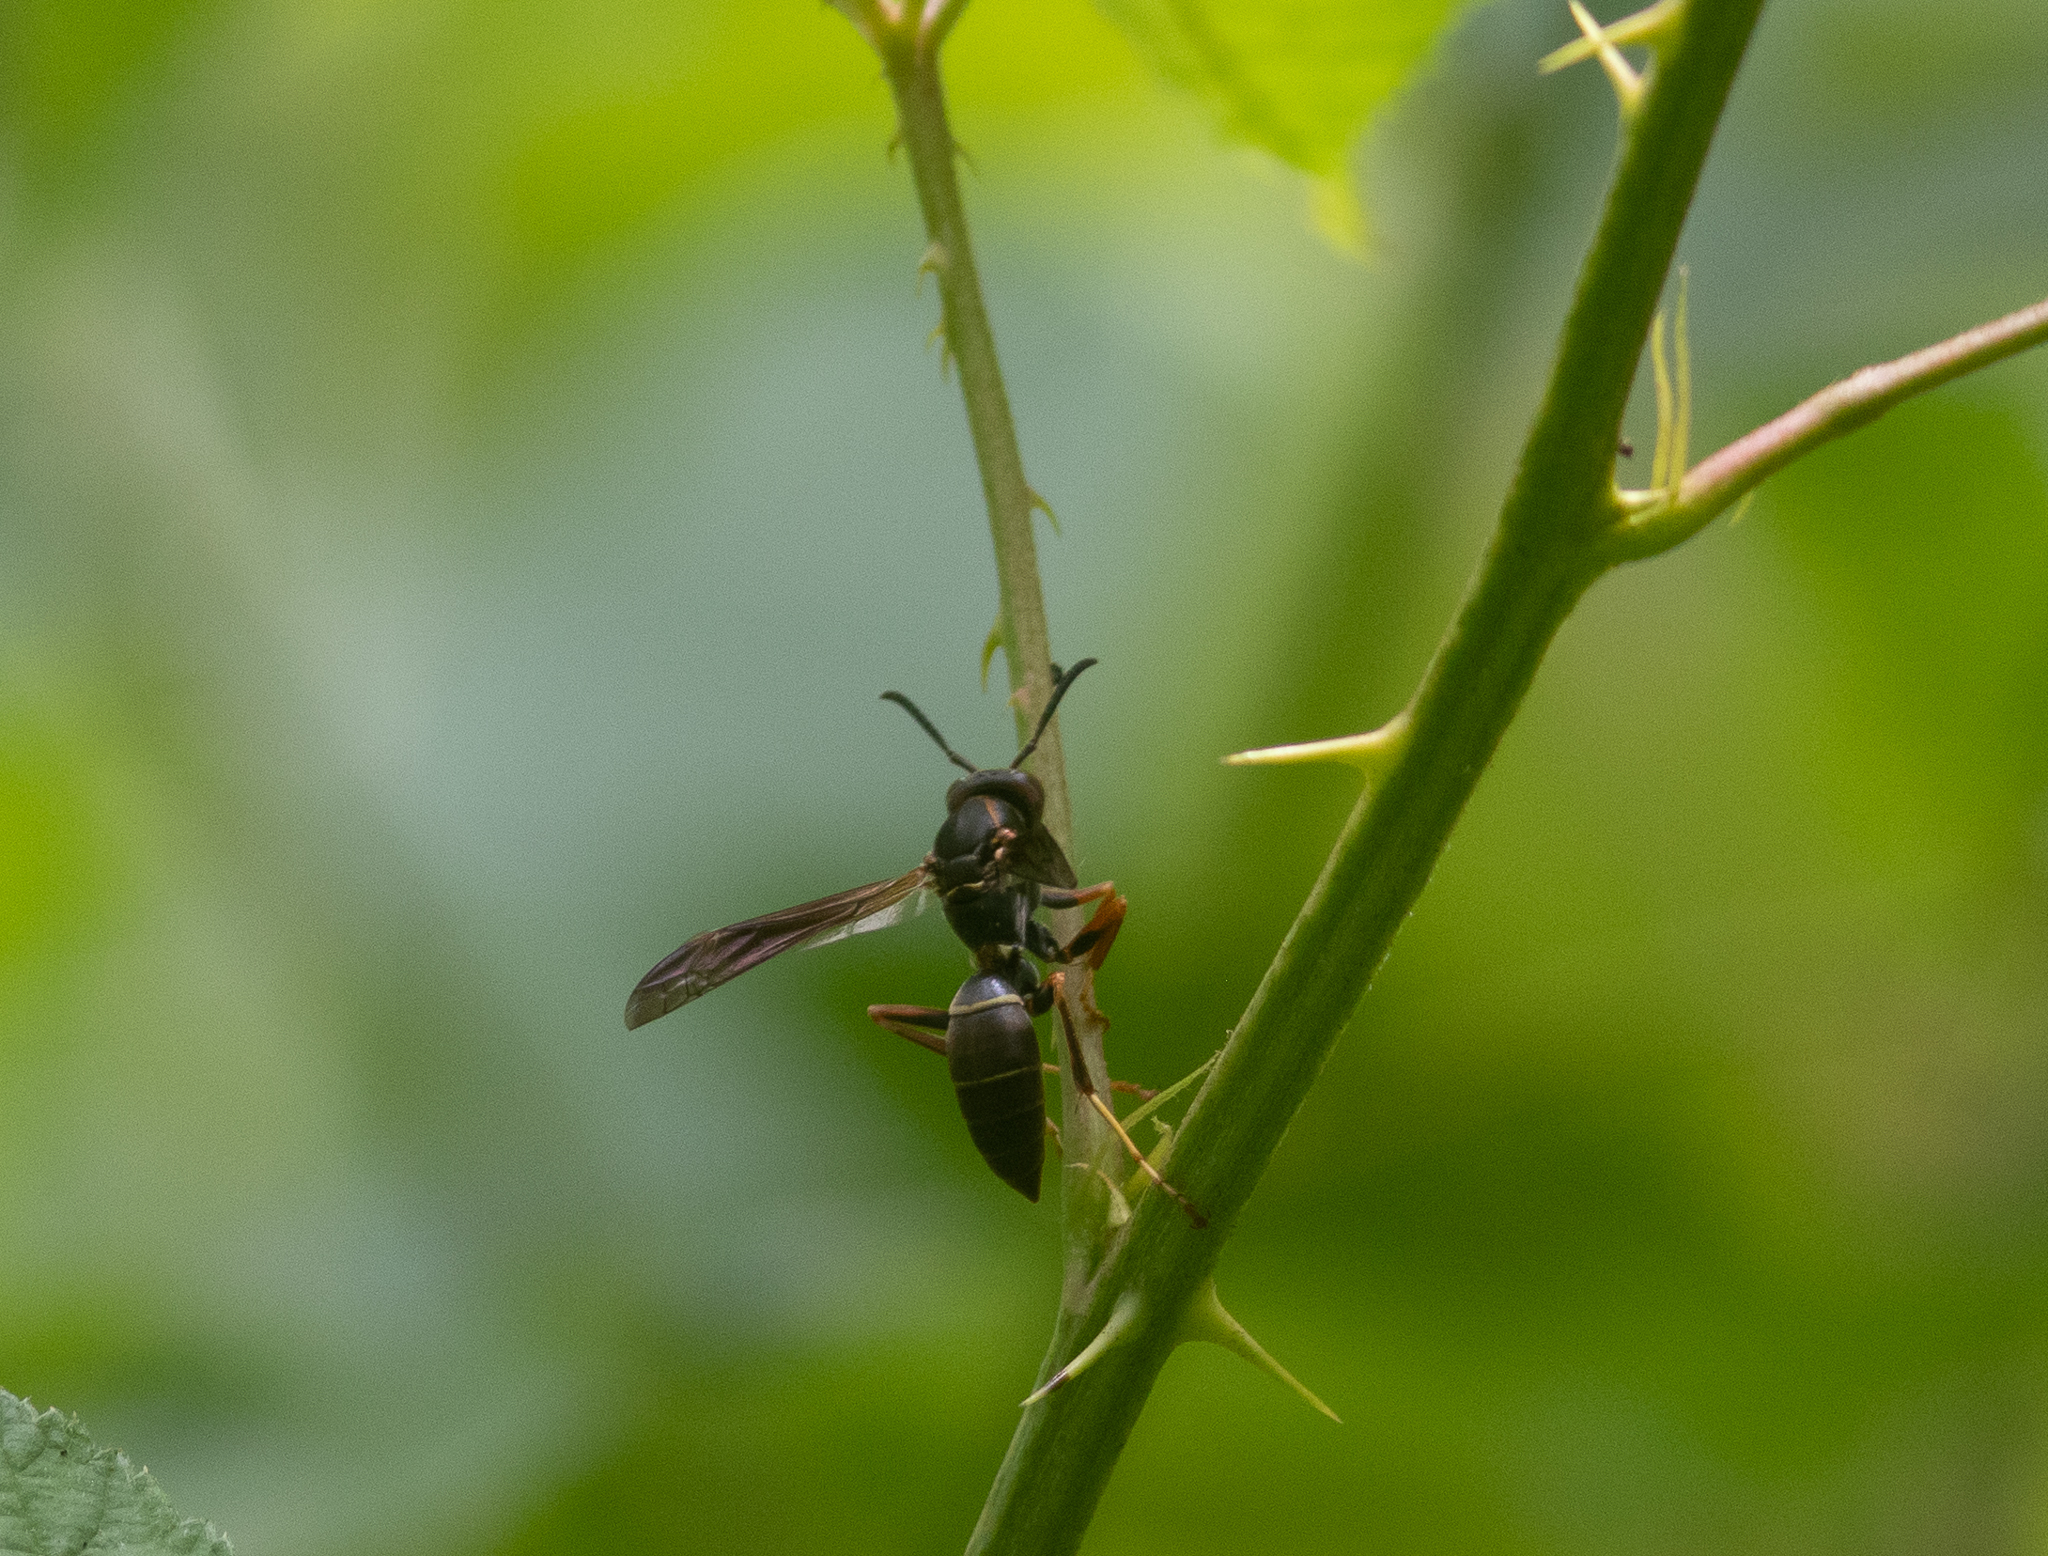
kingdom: Animalia
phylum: Arthropoda
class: Insecta
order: Hymenoptera
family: Eumenidae
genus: Polistes
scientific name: Polistes fuscatus
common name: Dark paper wasp
